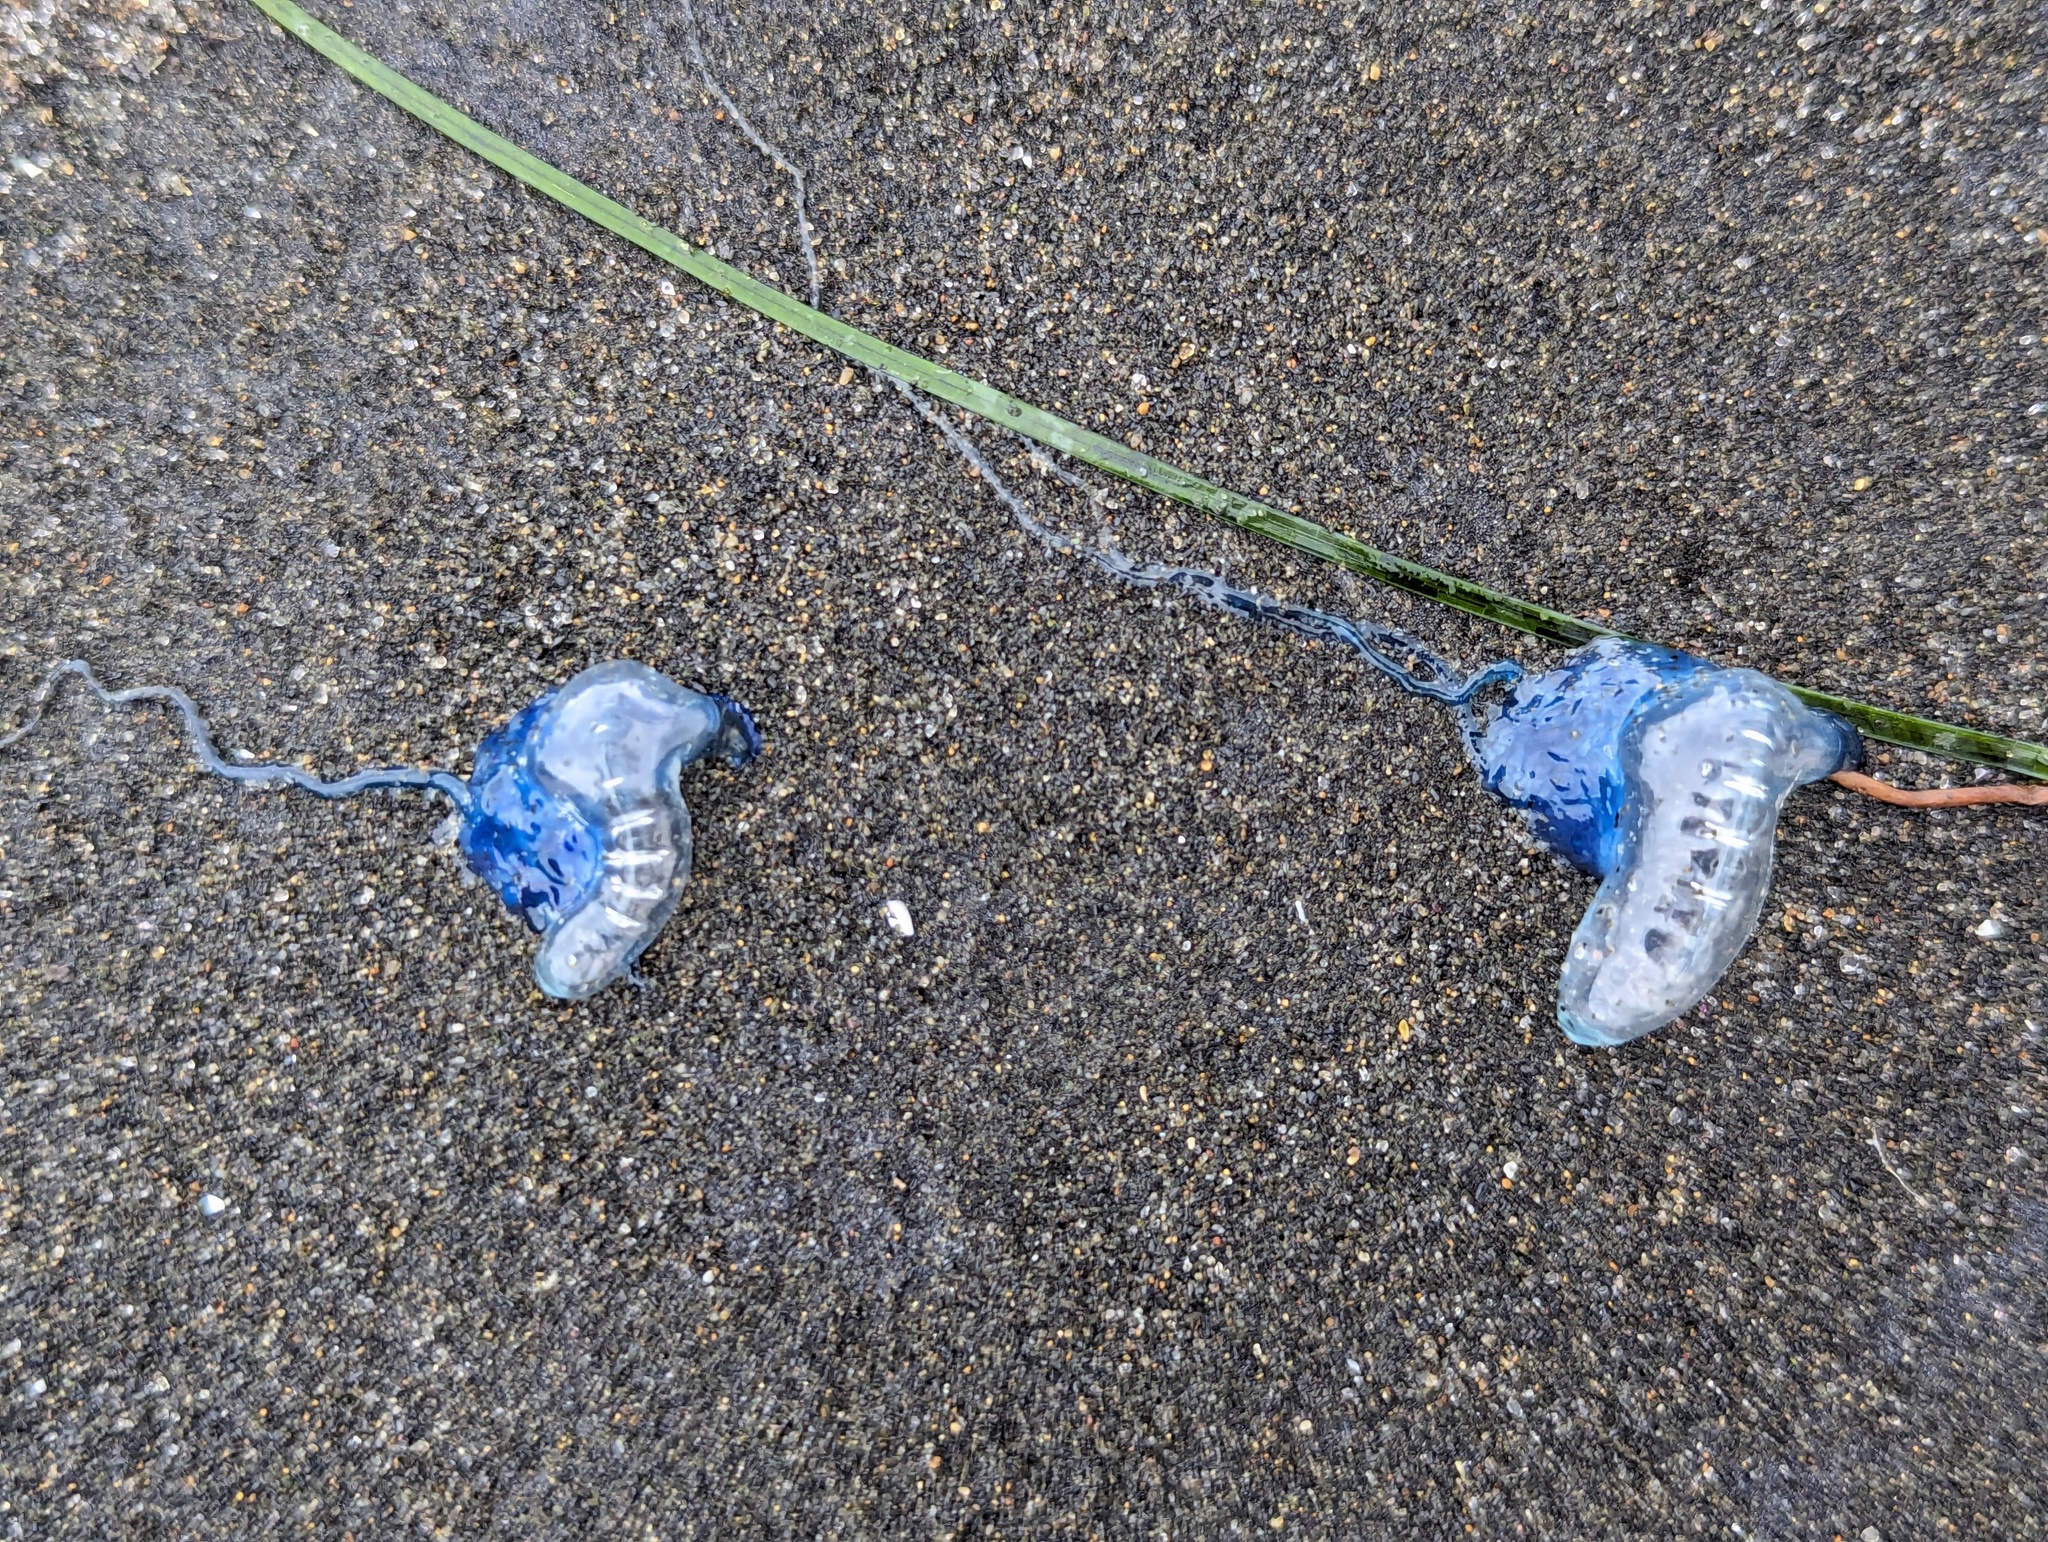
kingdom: Animalia
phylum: Cnidaria
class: Hydrozoa
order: Siphonophorae
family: Physaliidae
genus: Physalia
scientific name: Physalia physalis
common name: Portuguese man-of-war
